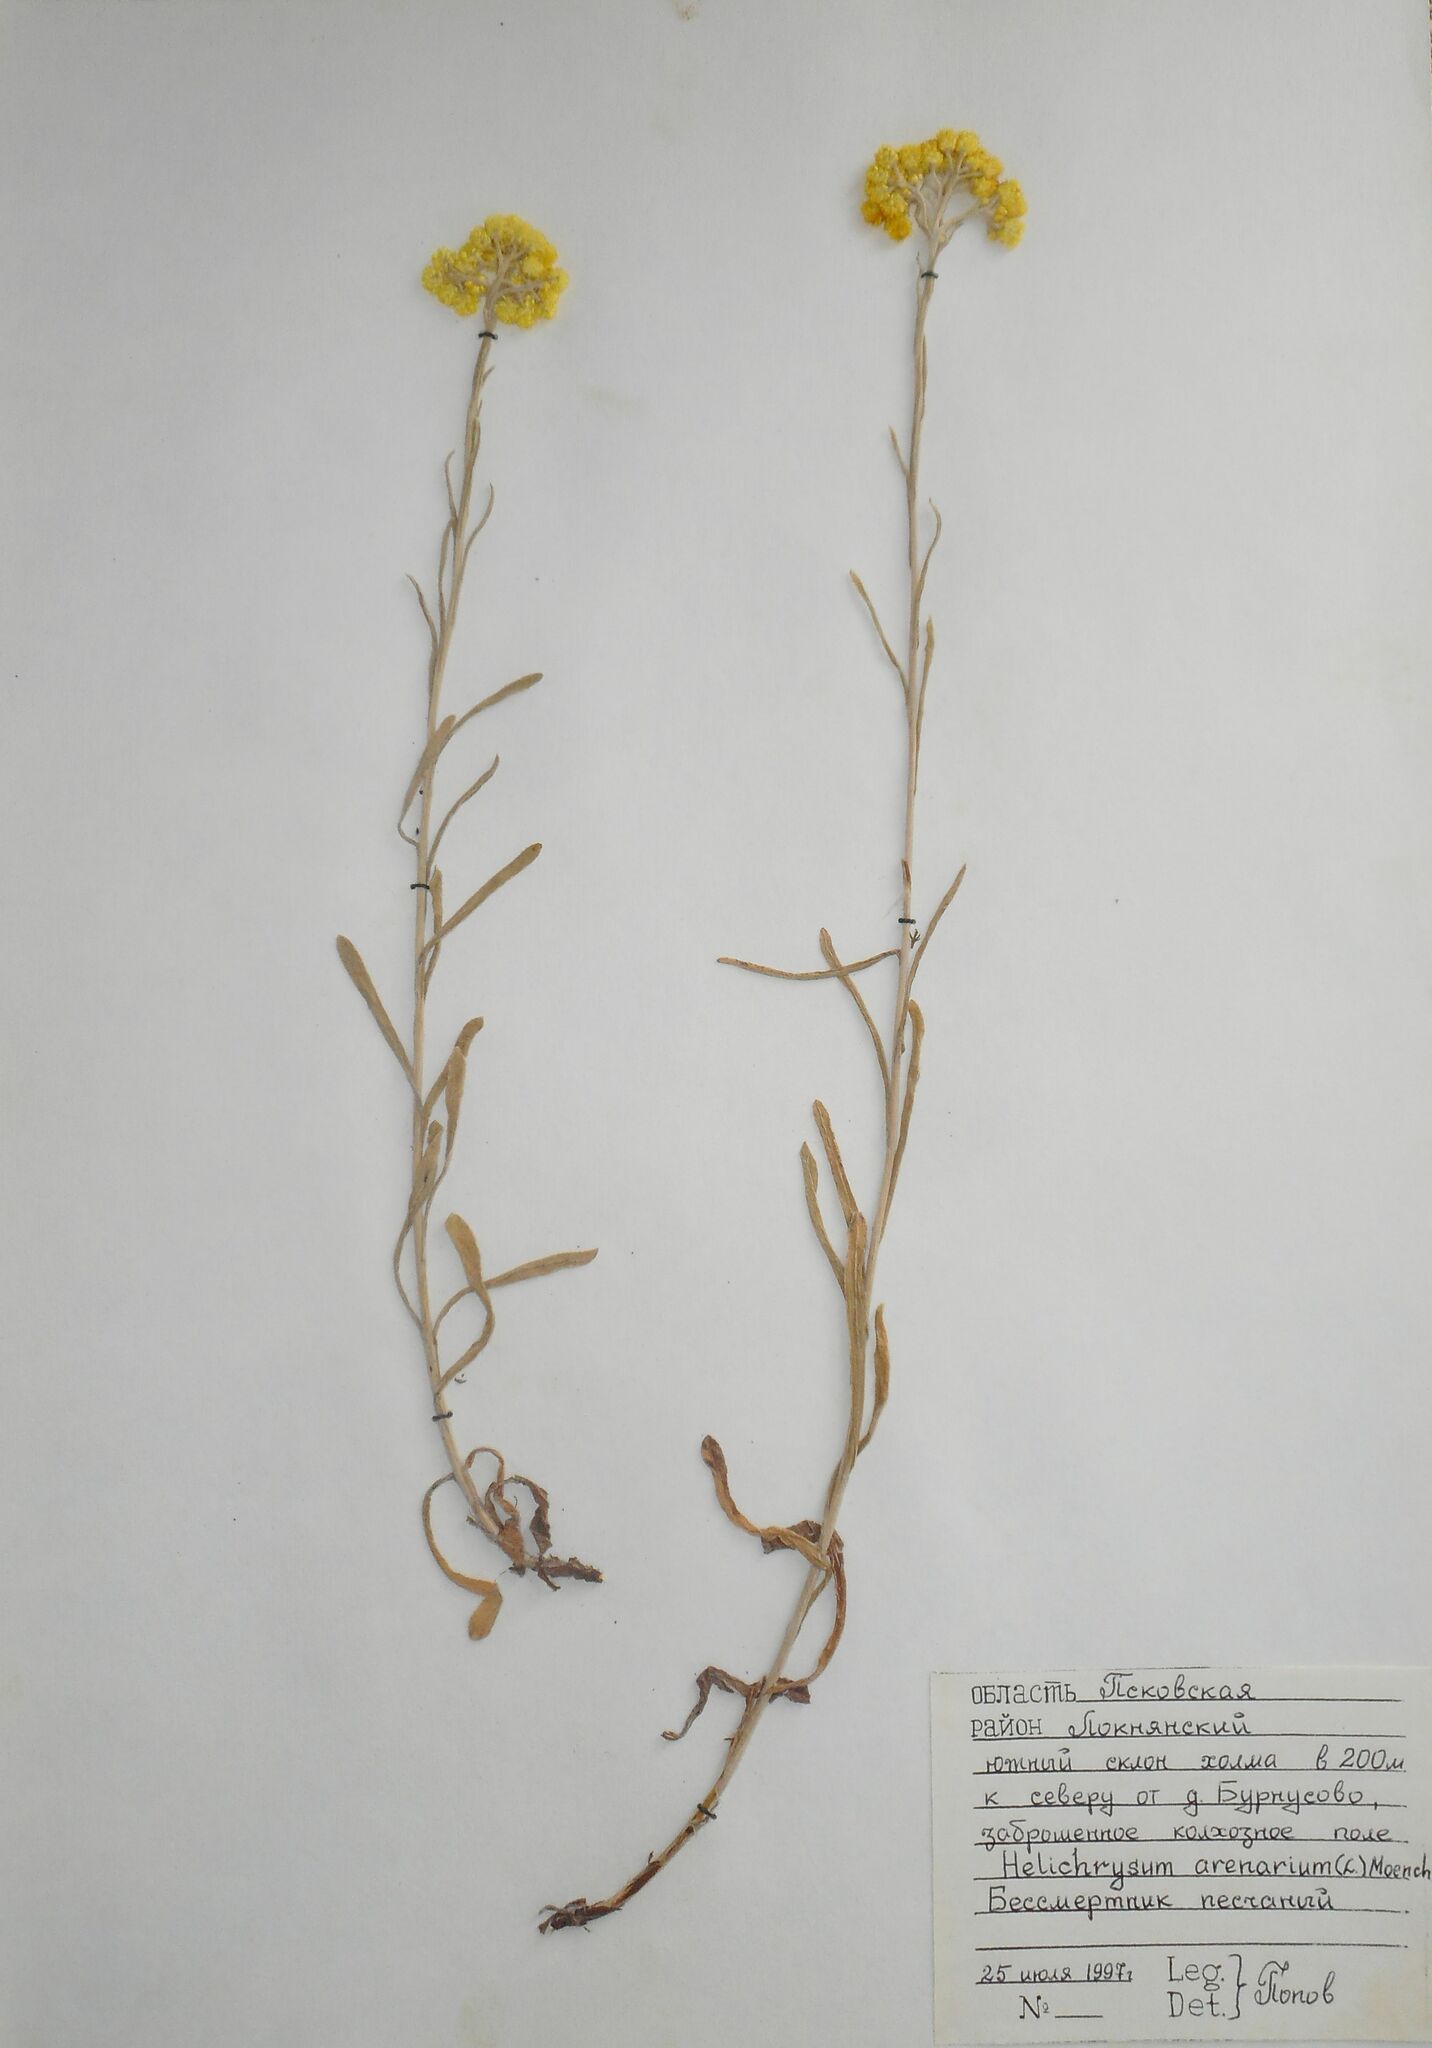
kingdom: Plantae
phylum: Tracheophyta
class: Magnoliopsida
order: Asterales
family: Asteraceae
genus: Helichrysum
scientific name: Helichrysum arenarium
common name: Strawflower
